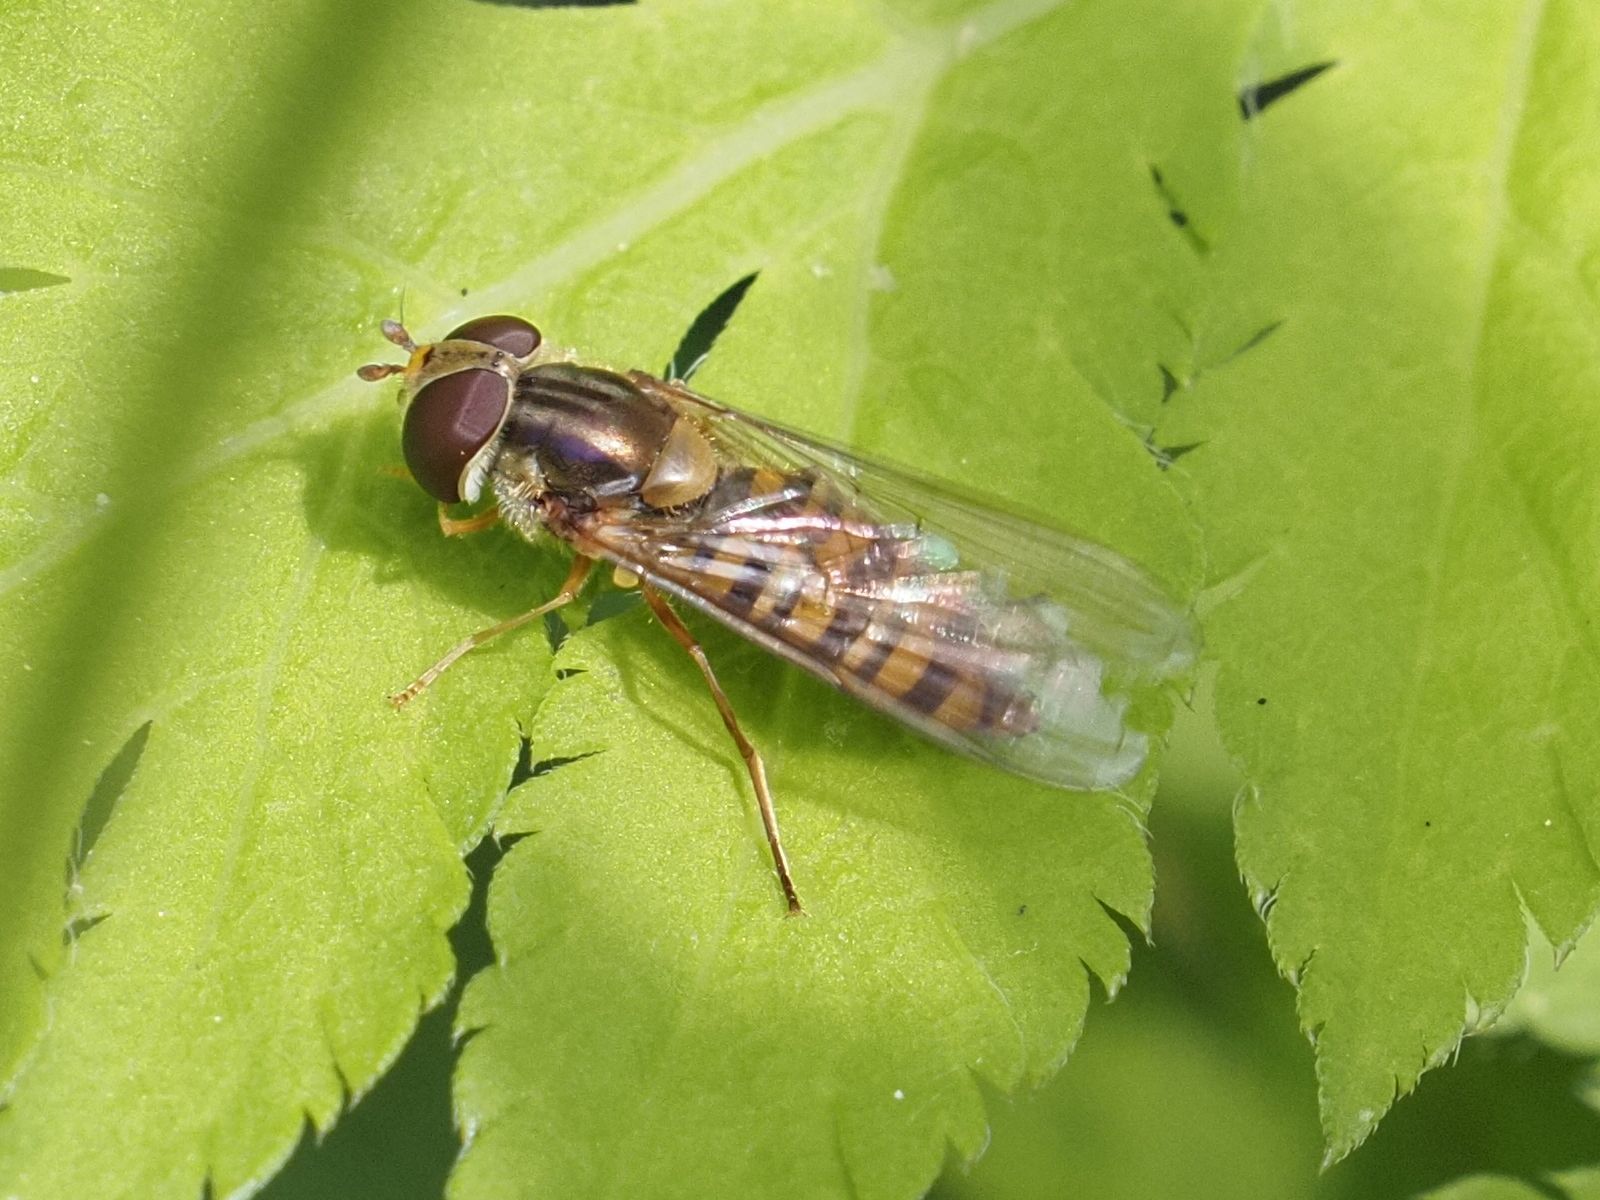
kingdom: Animalia
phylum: Arthropoda
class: Insecta
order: Diptera
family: Syrphidae
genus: Episyrphus
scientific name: Episyrphus balteatus
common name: Marmalade hoverfly
